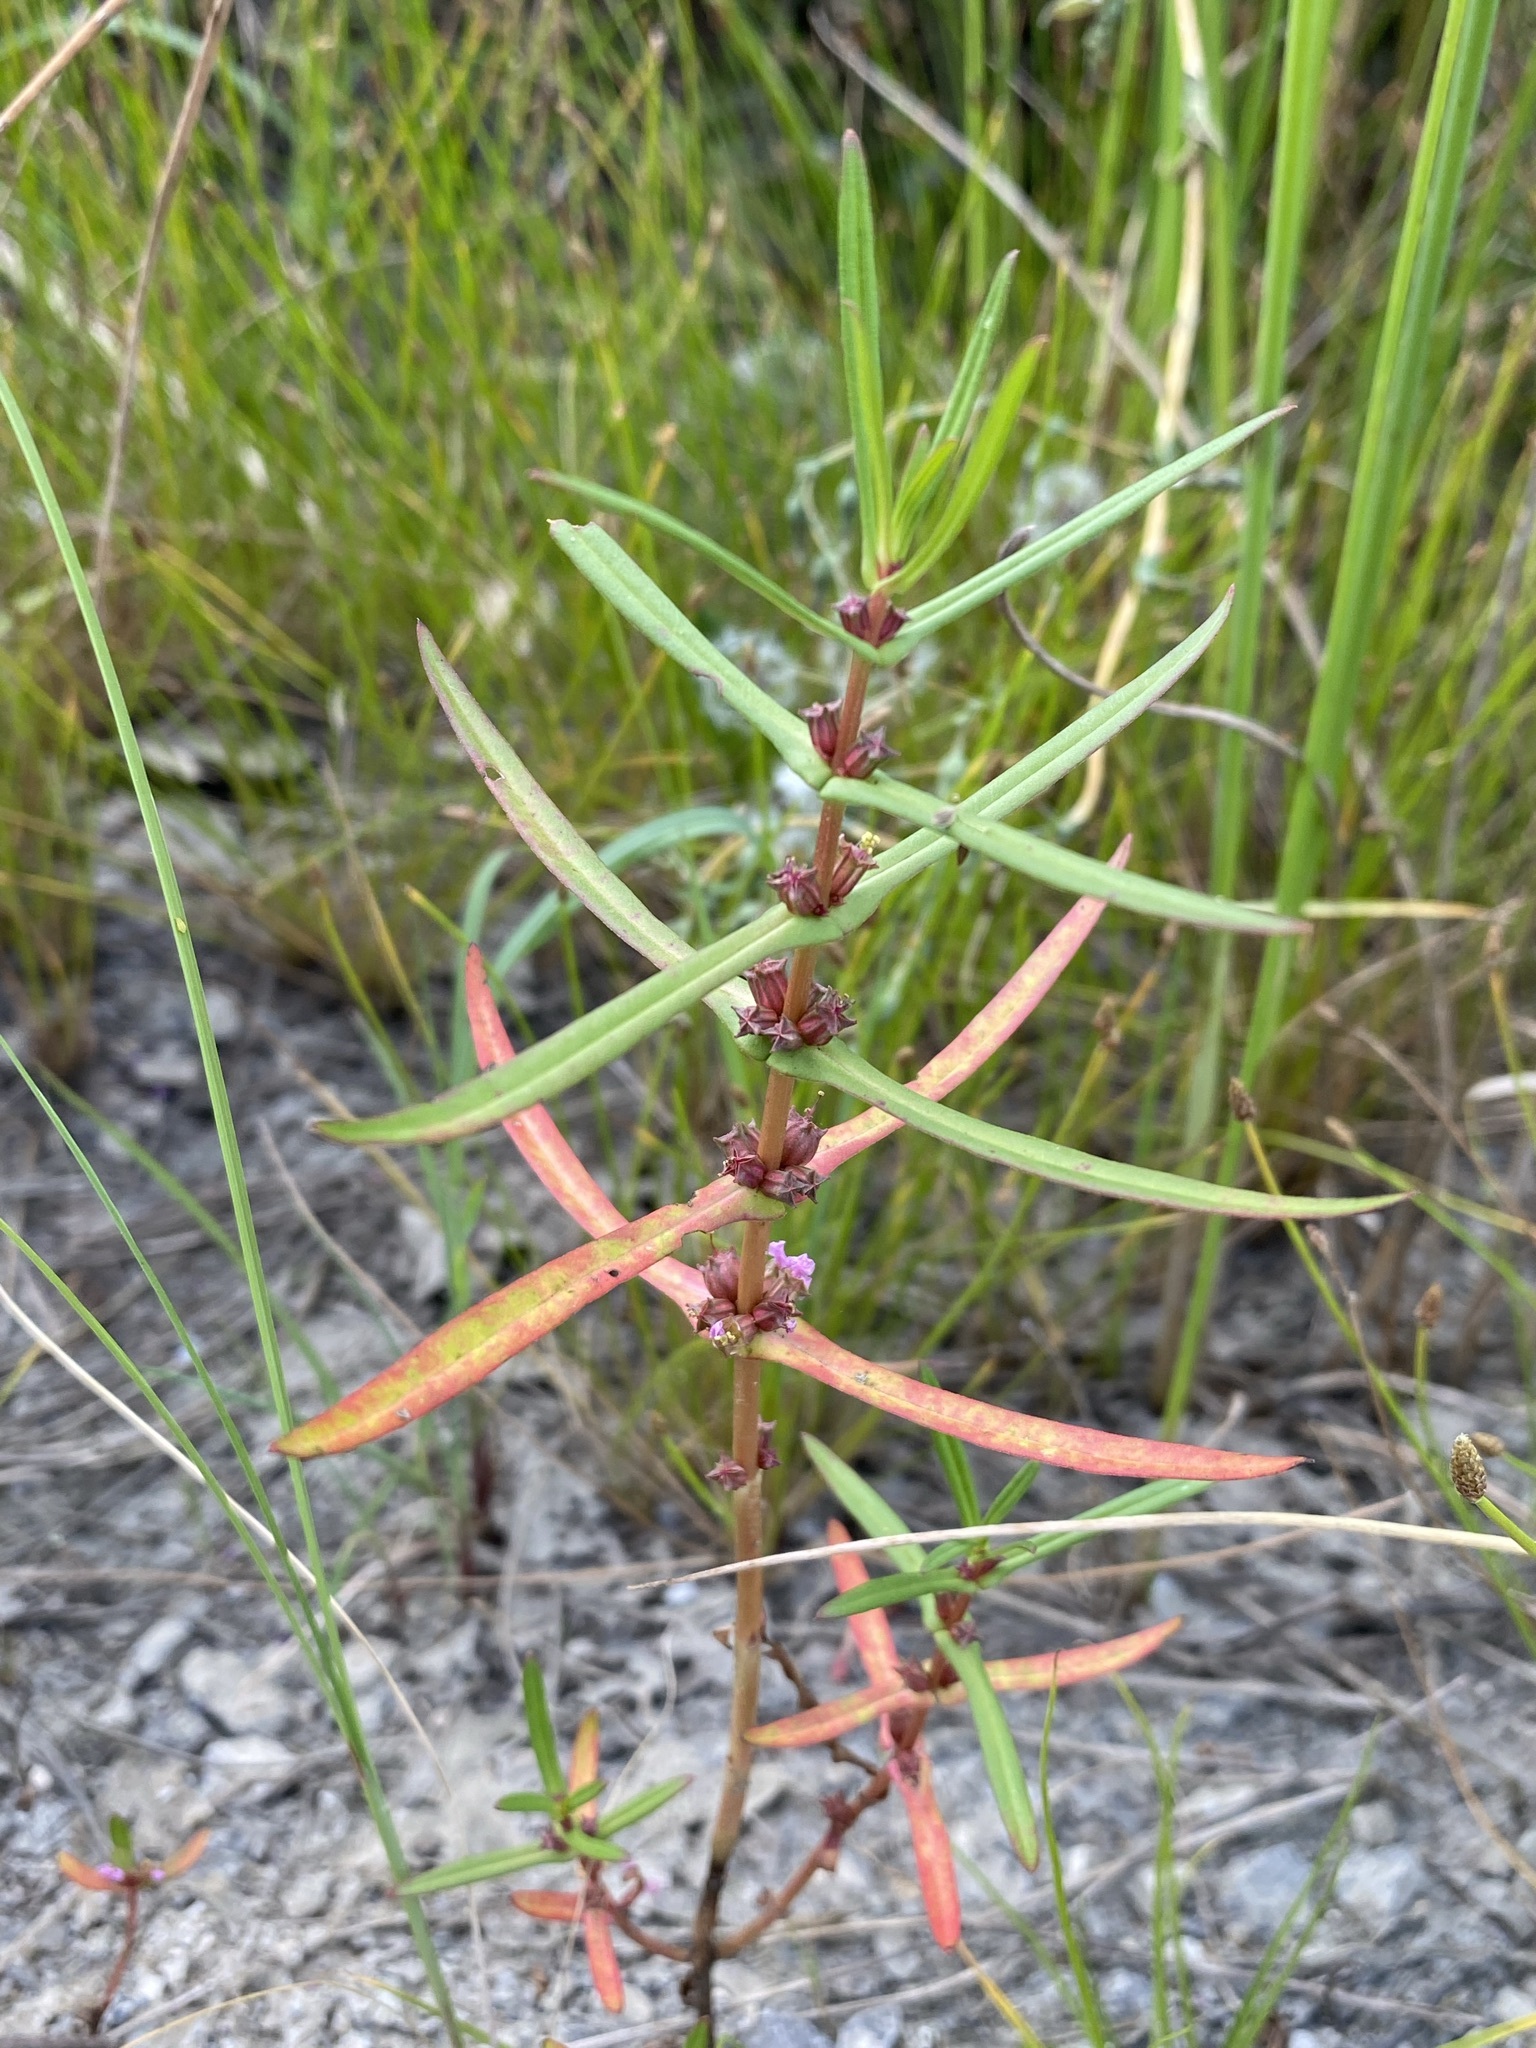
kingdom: Plantae
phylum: Tracheophyta
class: Magnoliopsida
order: Myrtales
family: Lythraceae
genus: Ammannia
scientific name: Ammannia robusta
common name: Grand ammannia
